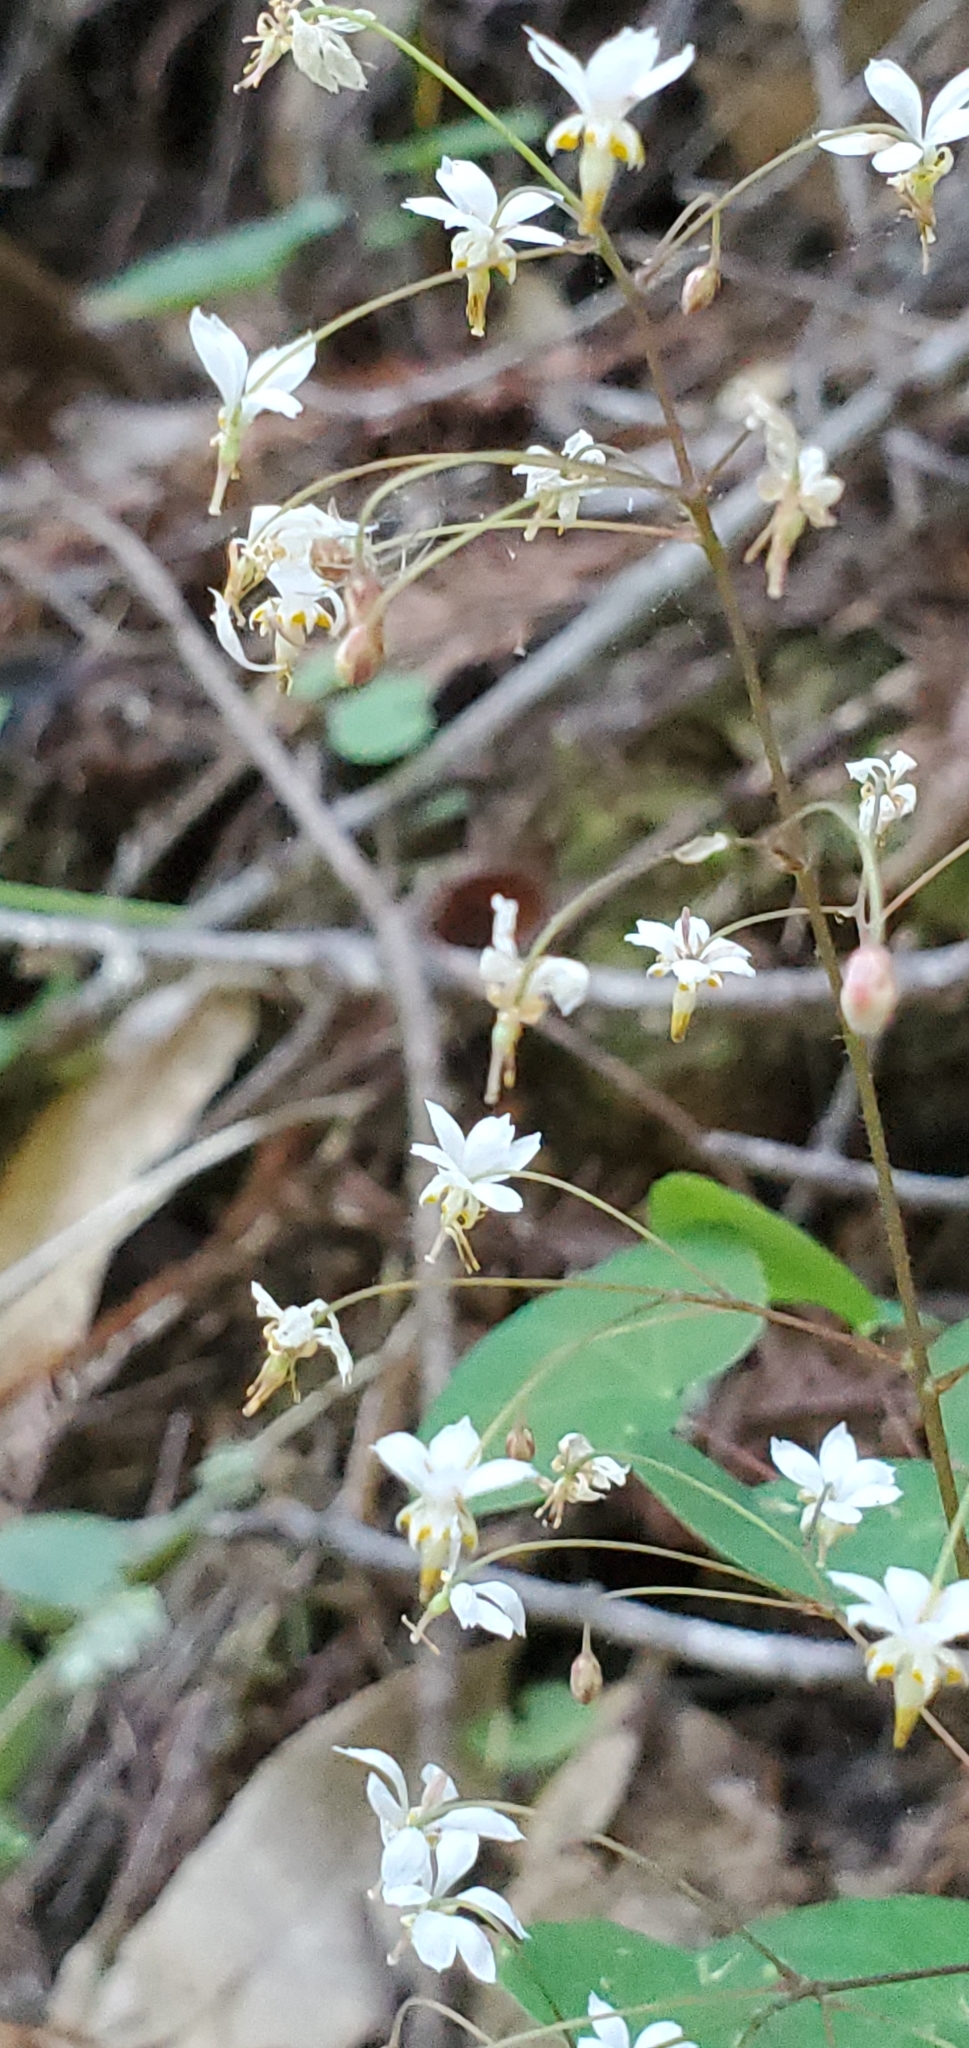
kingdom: Plantae
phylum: Tracheophyta
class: Magnoliopsida
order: Ranunculales
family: Berberidaceae
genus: Vancouveria
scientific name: Vancouveria planipetala
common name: Redwood-ivy
